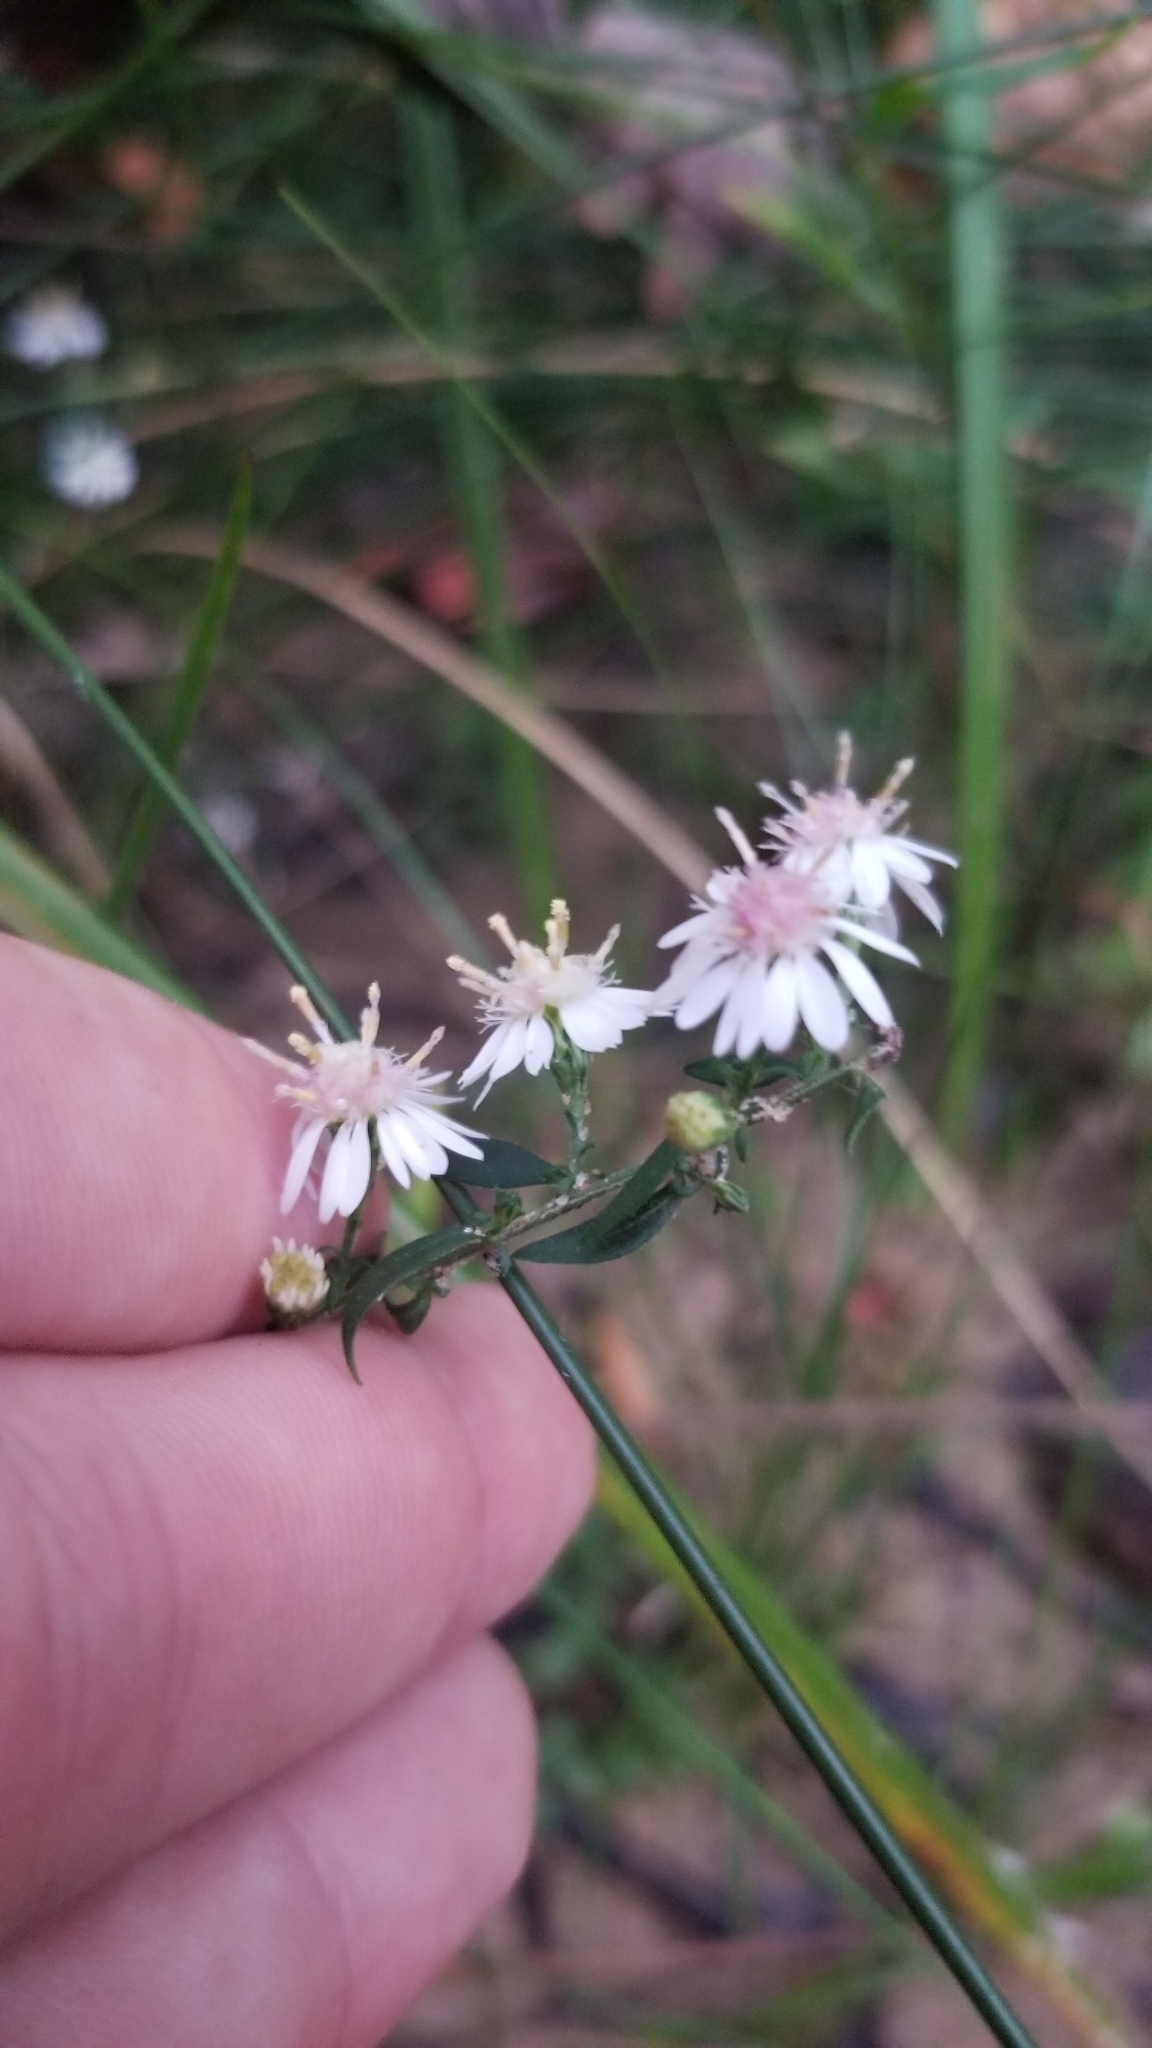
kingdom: Plantae
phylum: Tracheophyta
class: Magnoliopsida
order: Asterales
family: Asteraceae
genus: Symphyotrichum
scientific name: Symphyotrichum lateriflorum
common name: Calico aster
